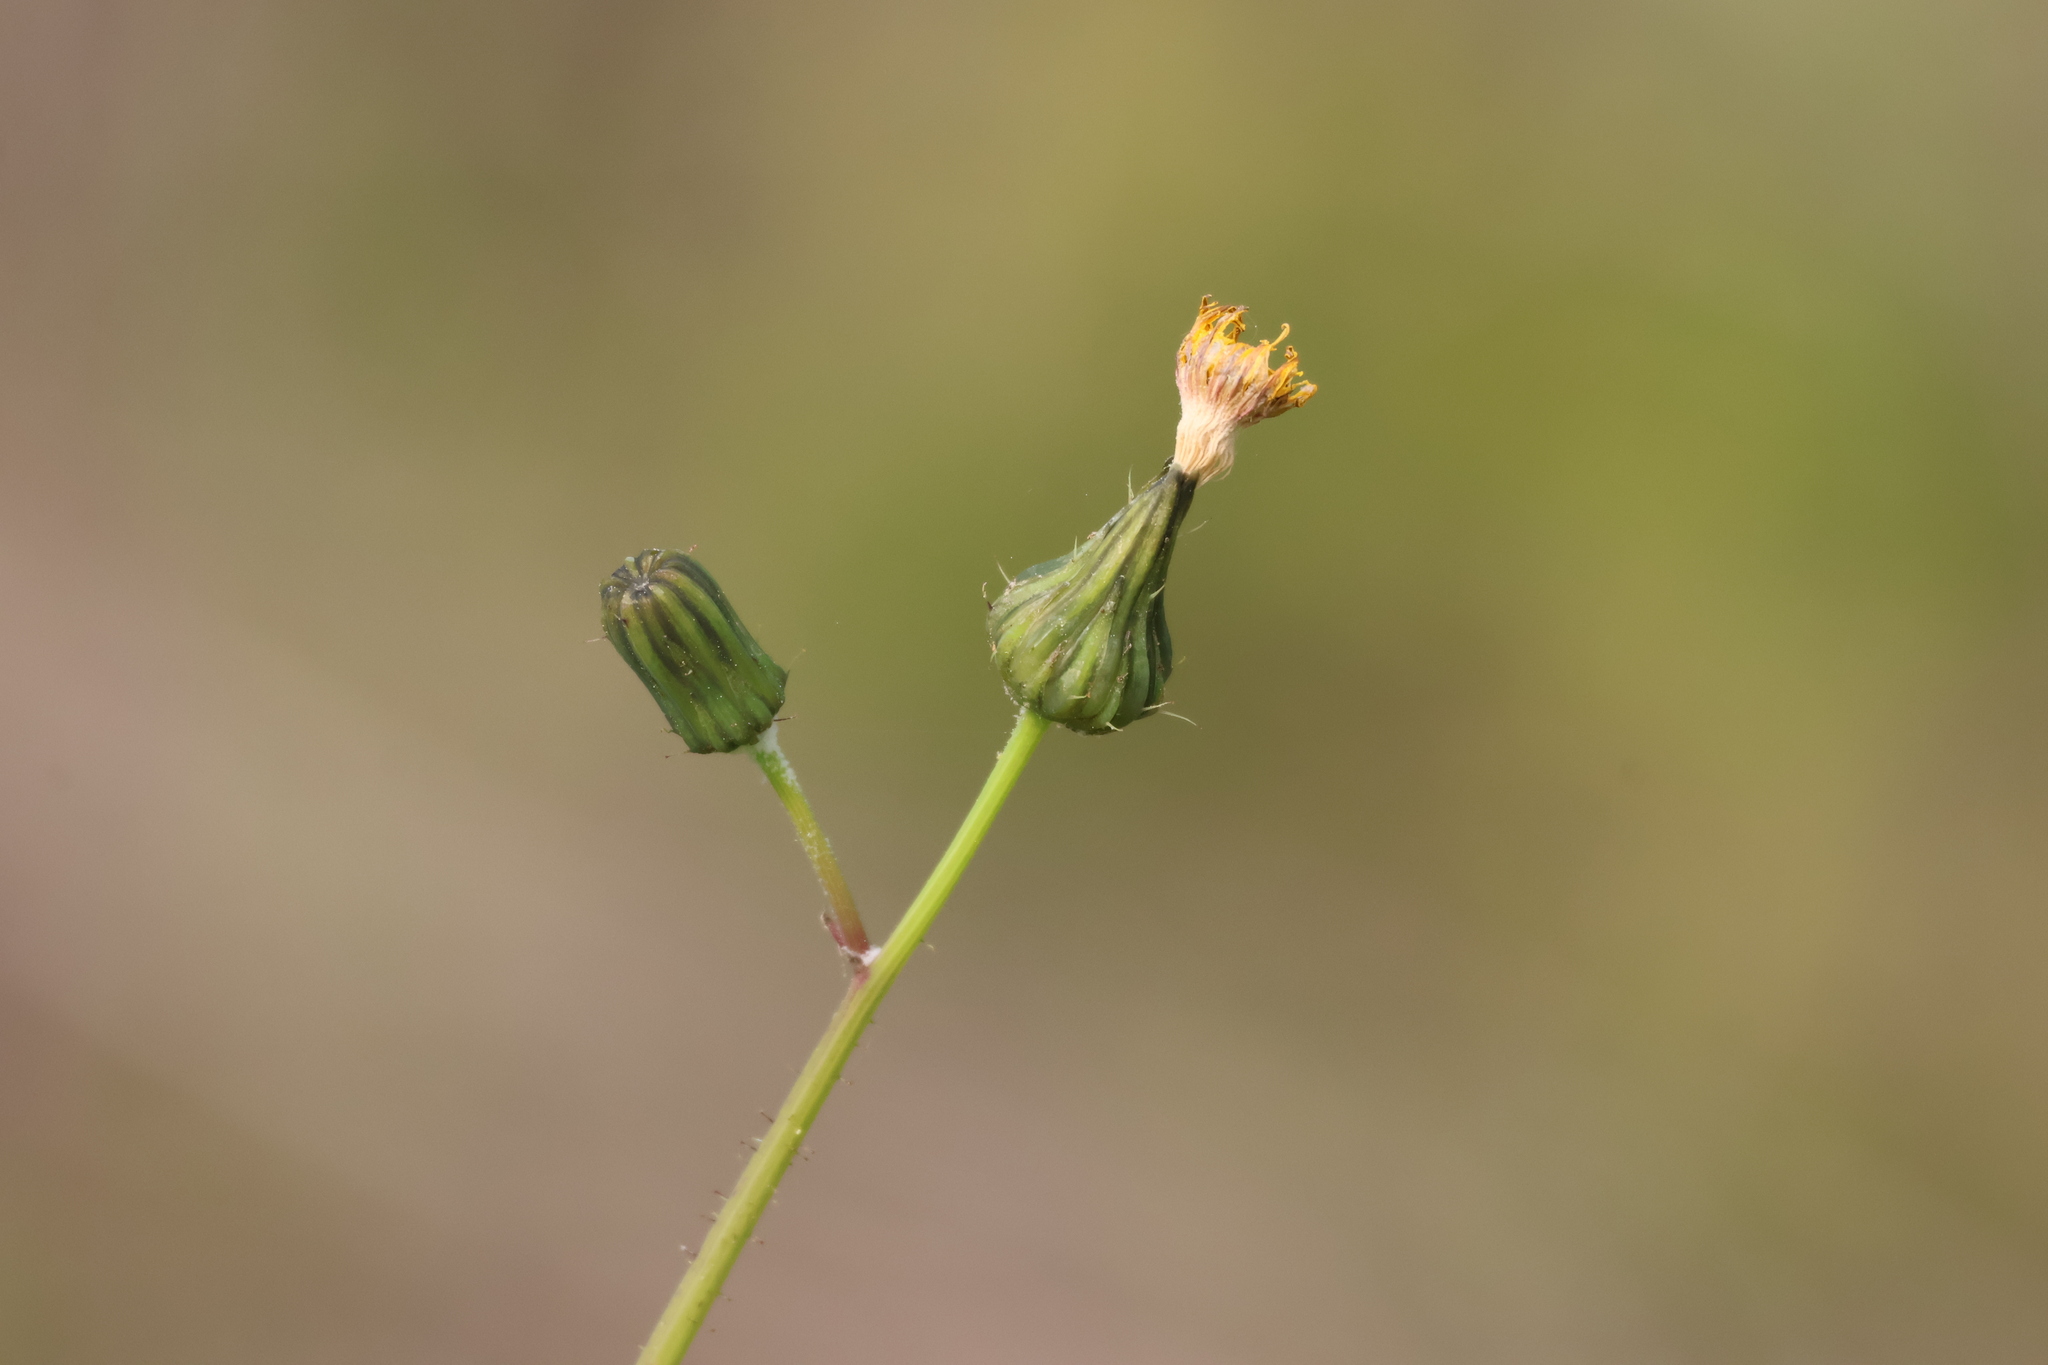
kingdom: Plantae
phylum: Tracheophyta
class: Magnoliopsida
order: Asterales
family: Asteraceae
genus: Sonchus
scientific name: Sonchus oleraceus
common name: Common sowthistle
